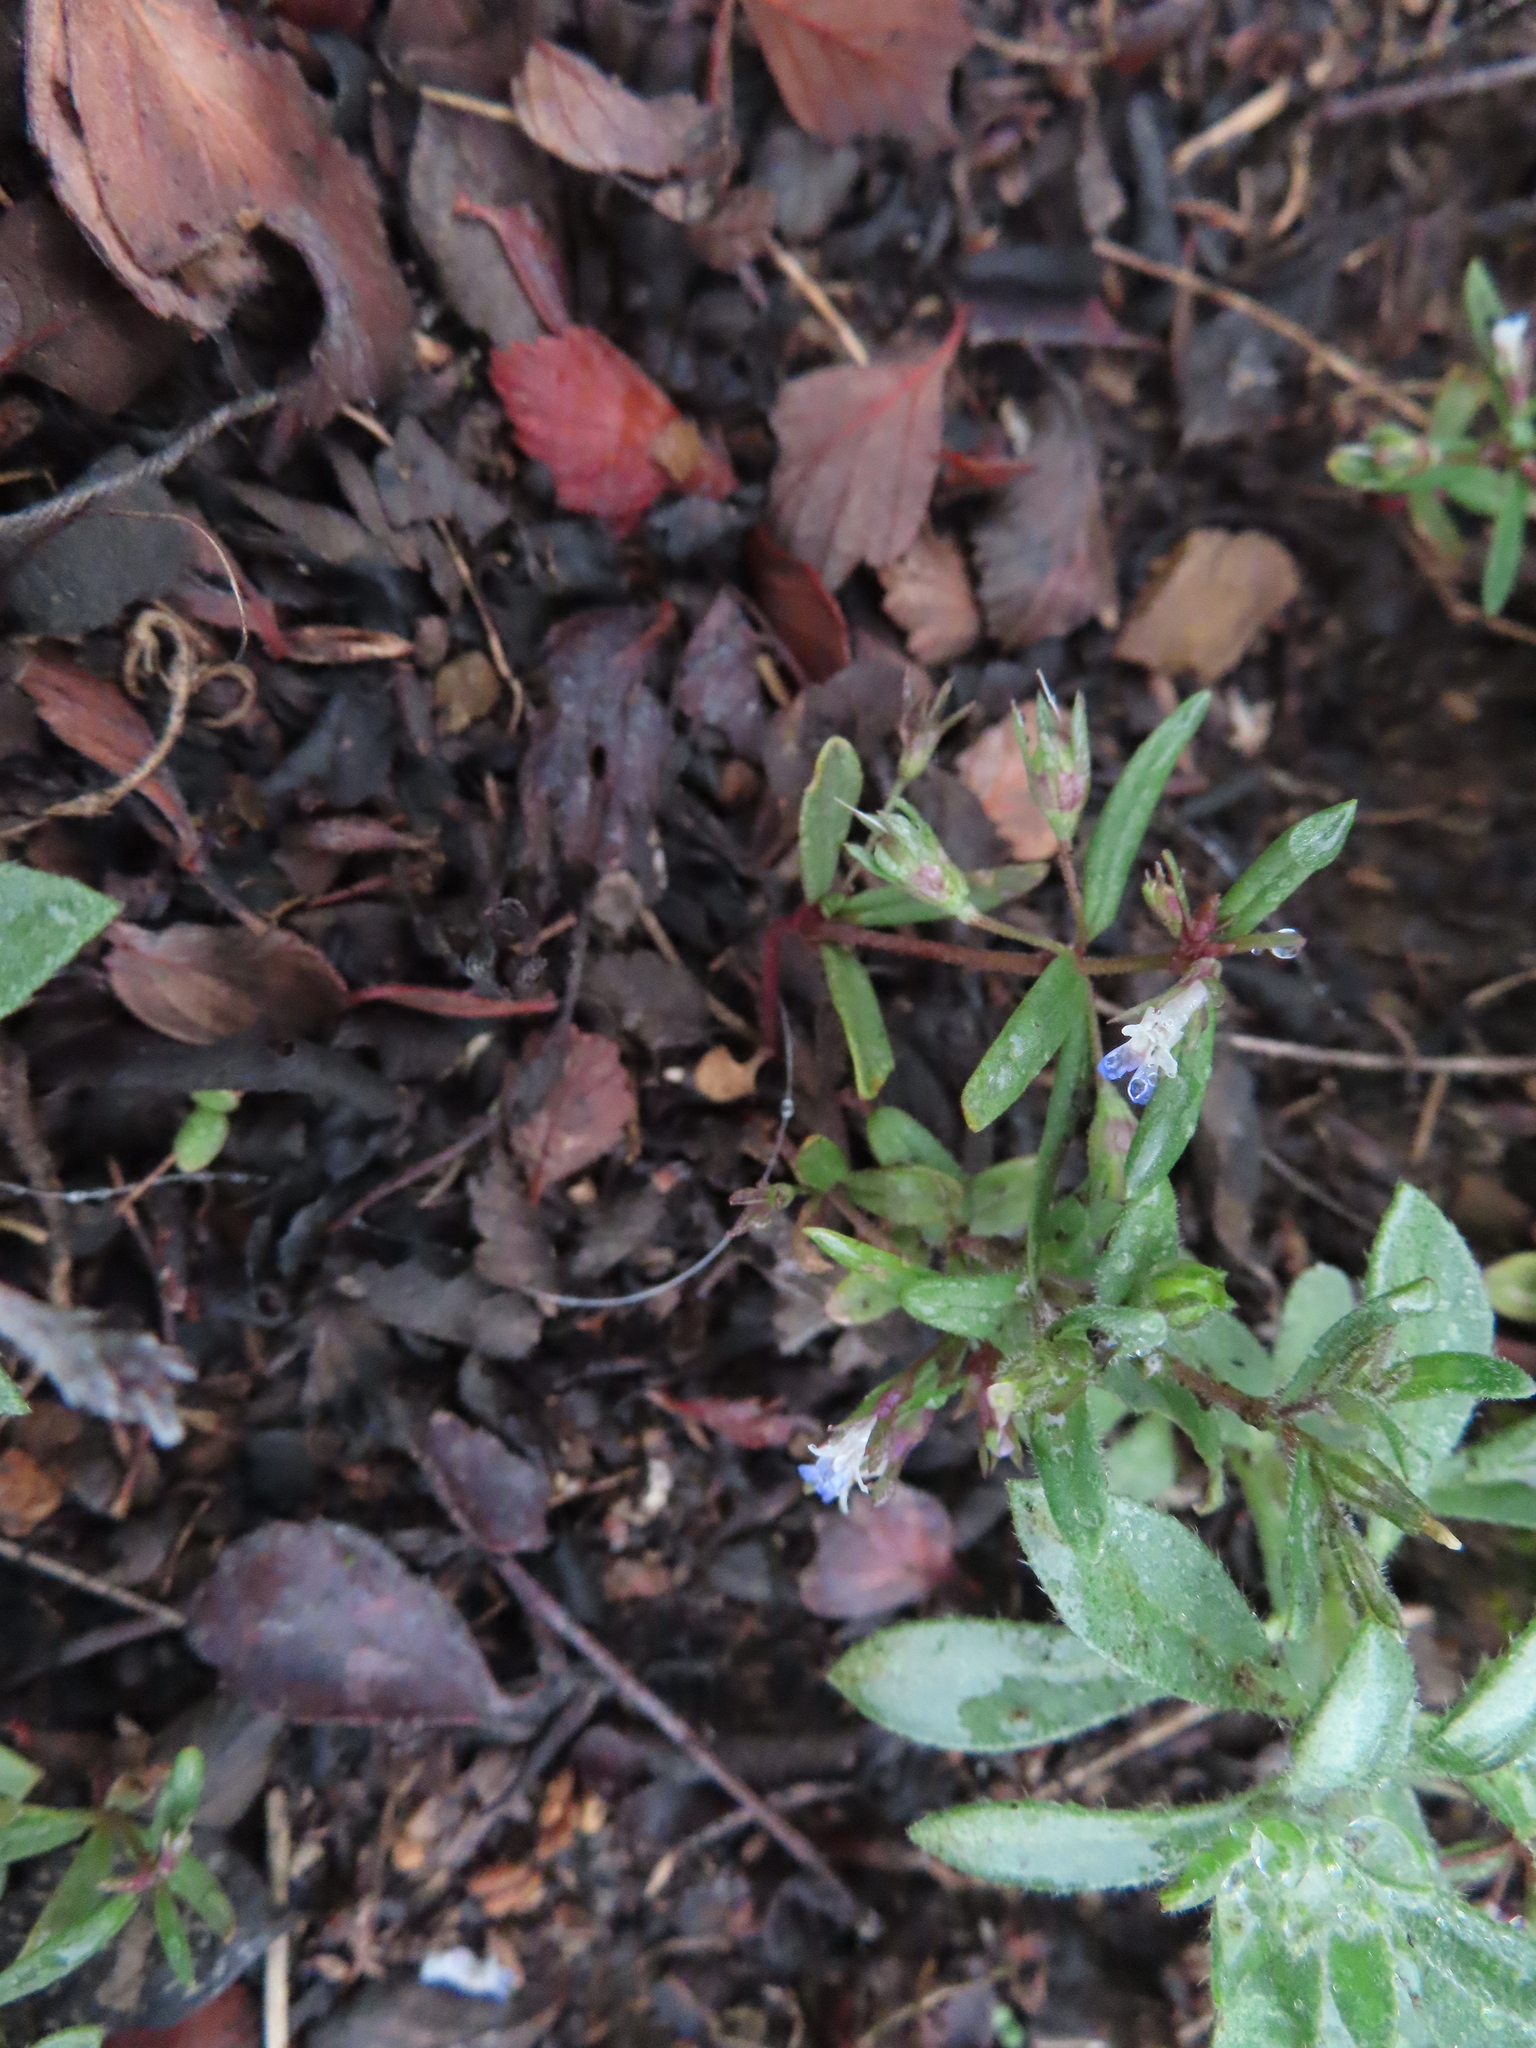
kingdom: Plantae
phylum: Tracheophyta
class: Magnoliopsida
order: Lamiales
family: Plantaginaceae
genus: Collinsia
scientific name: Collinsia parviflora
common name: Blue-lips
